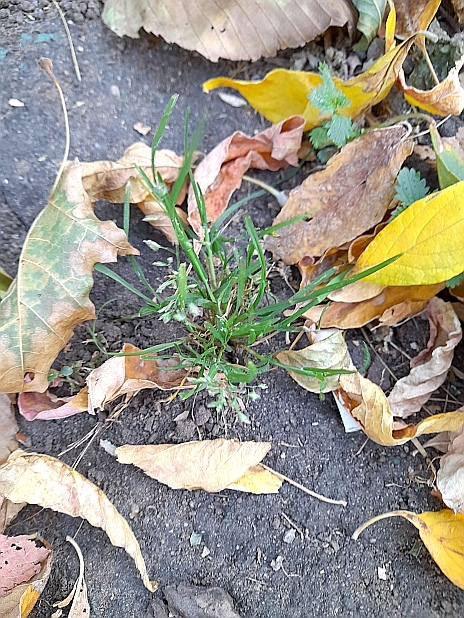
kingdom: Plantae
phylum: Tracheophyta
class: Liliopsida
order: Poales
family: Poaceae
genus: Poa
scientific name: Poa annua
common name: Annual bluegrass
